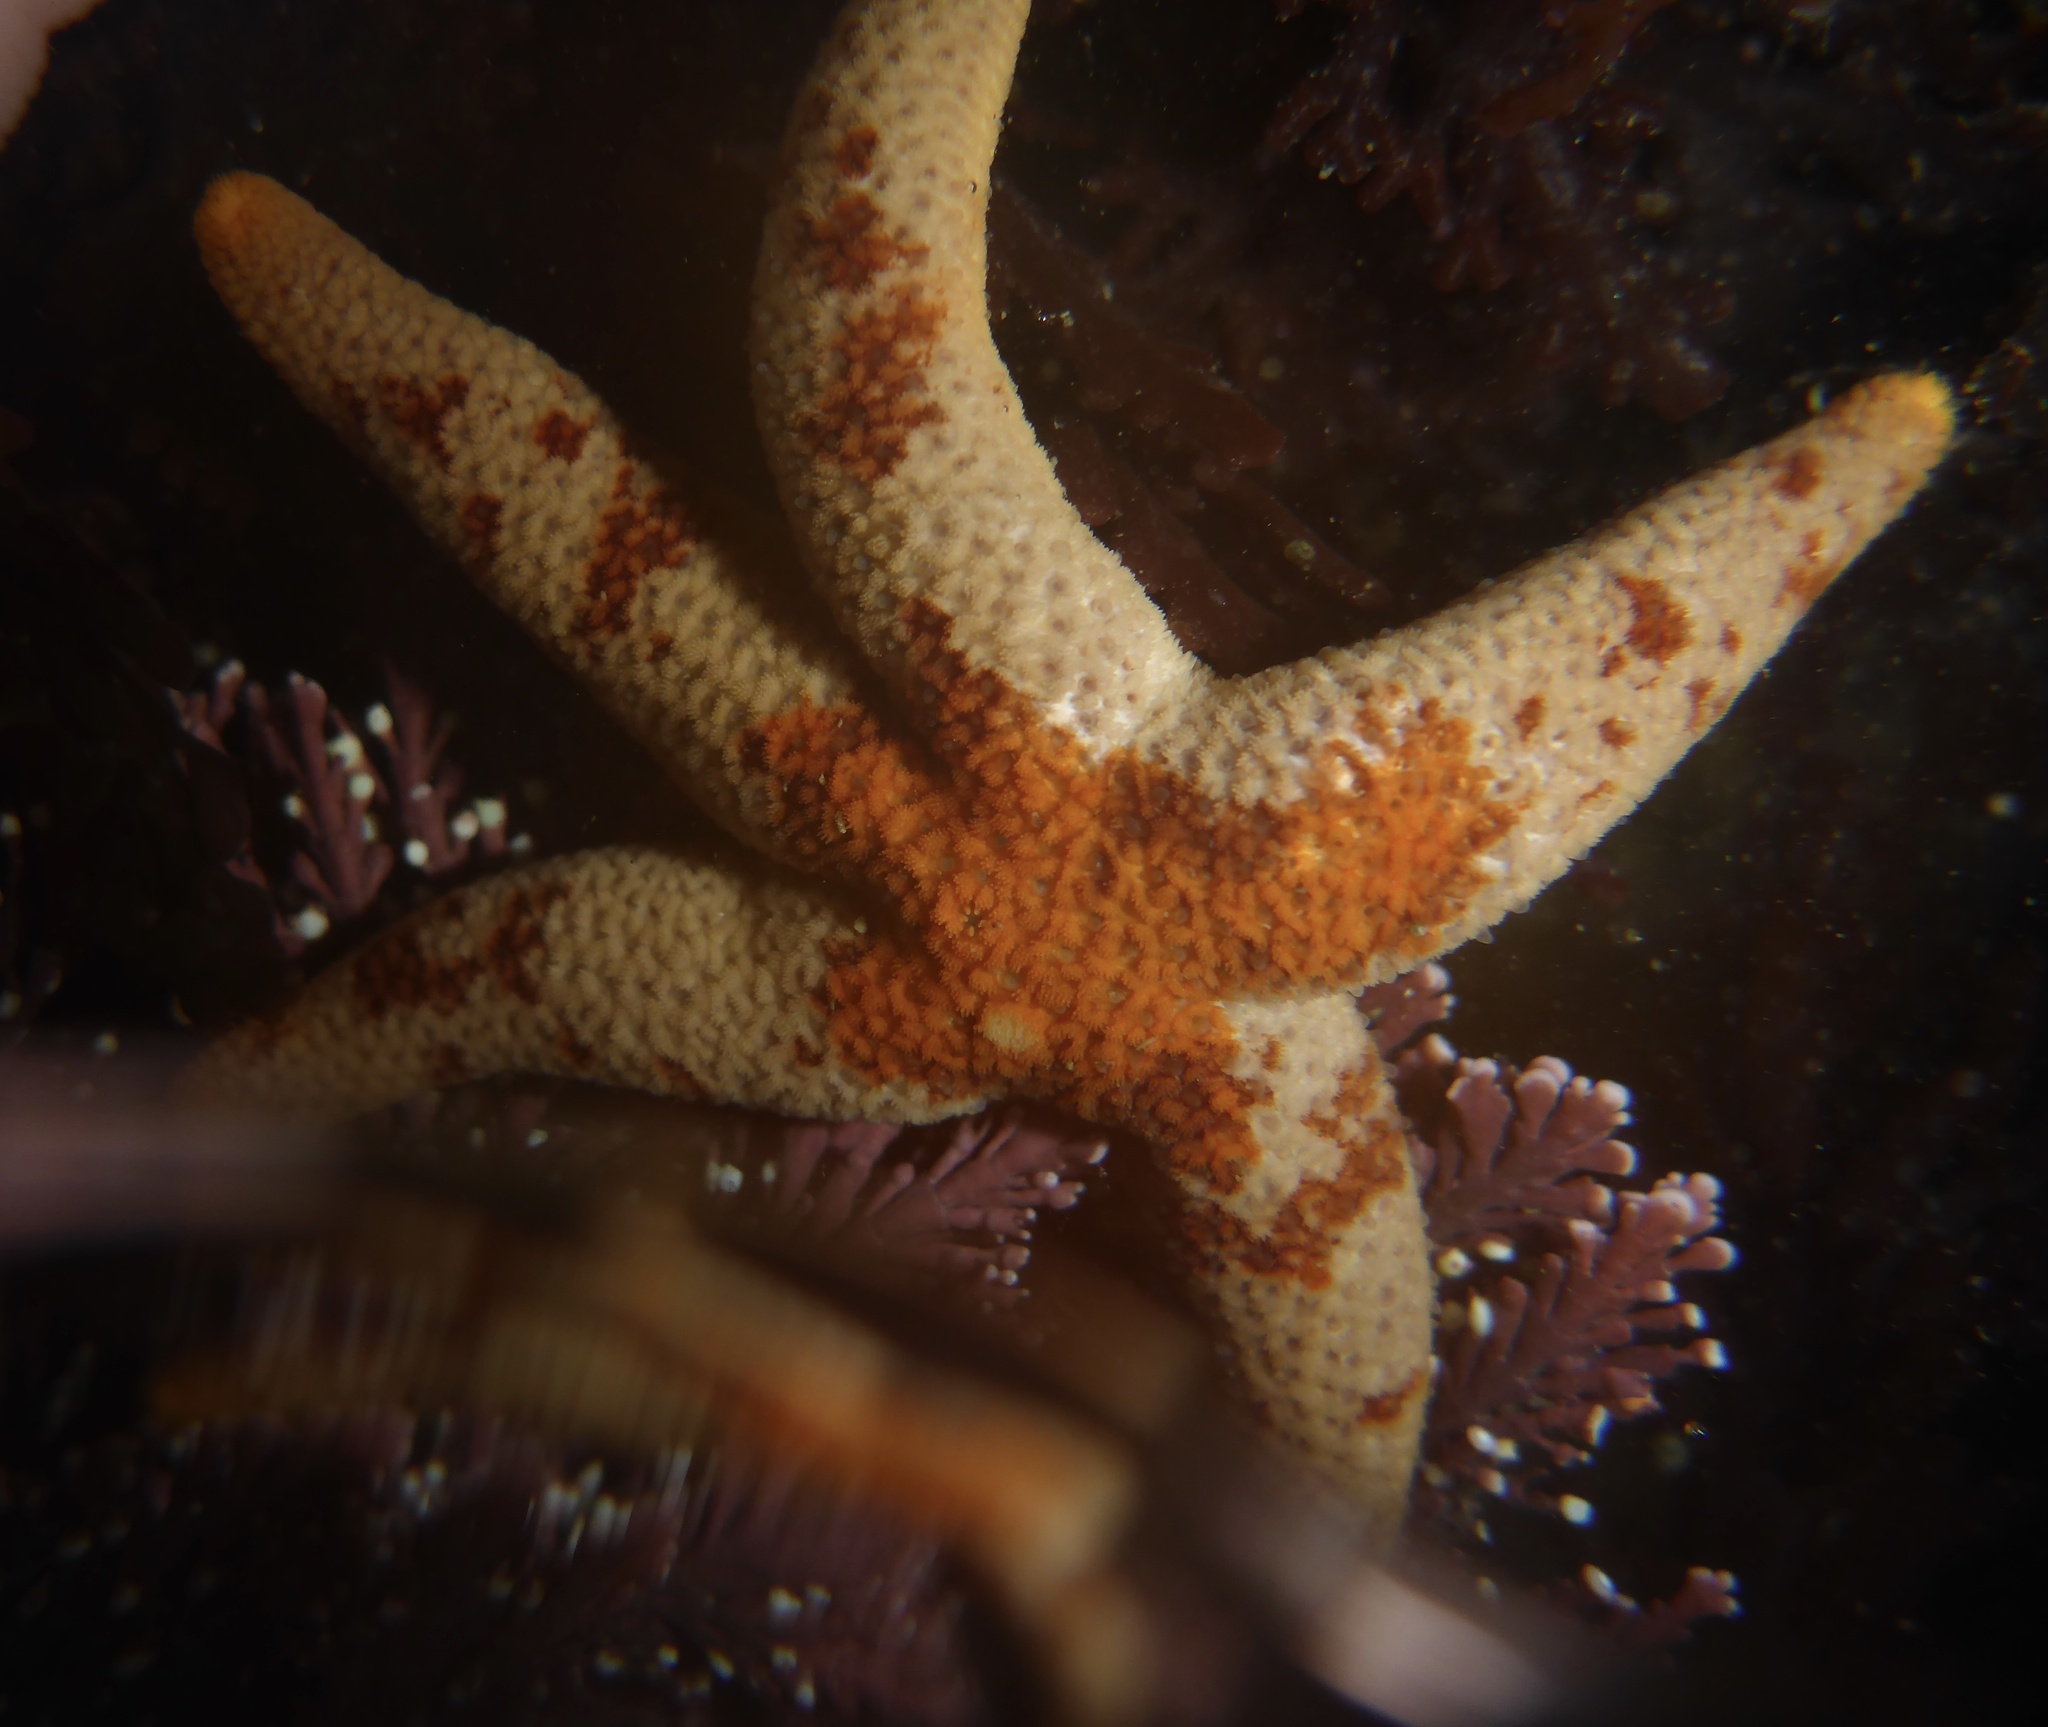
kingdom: Animalia
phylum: Echinodermata
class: Asteroidea
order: Spinulosida
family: Echinasteridae
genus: Henricia
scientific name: Henricia pumila
